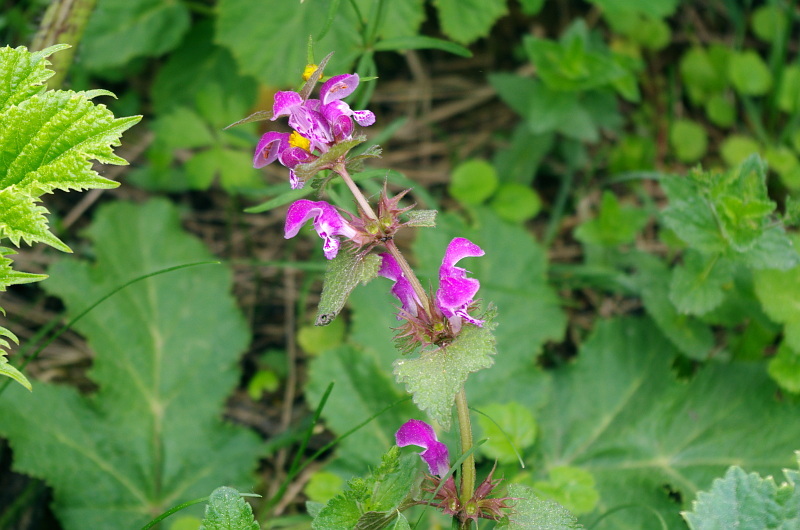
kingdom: Plantae
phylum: Tracheophyta
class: Magnoliopsida
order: Lamiales
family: Lamiaceae
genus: Lamium
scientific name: Lamium maculatum
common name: Spotted dead-nettle
